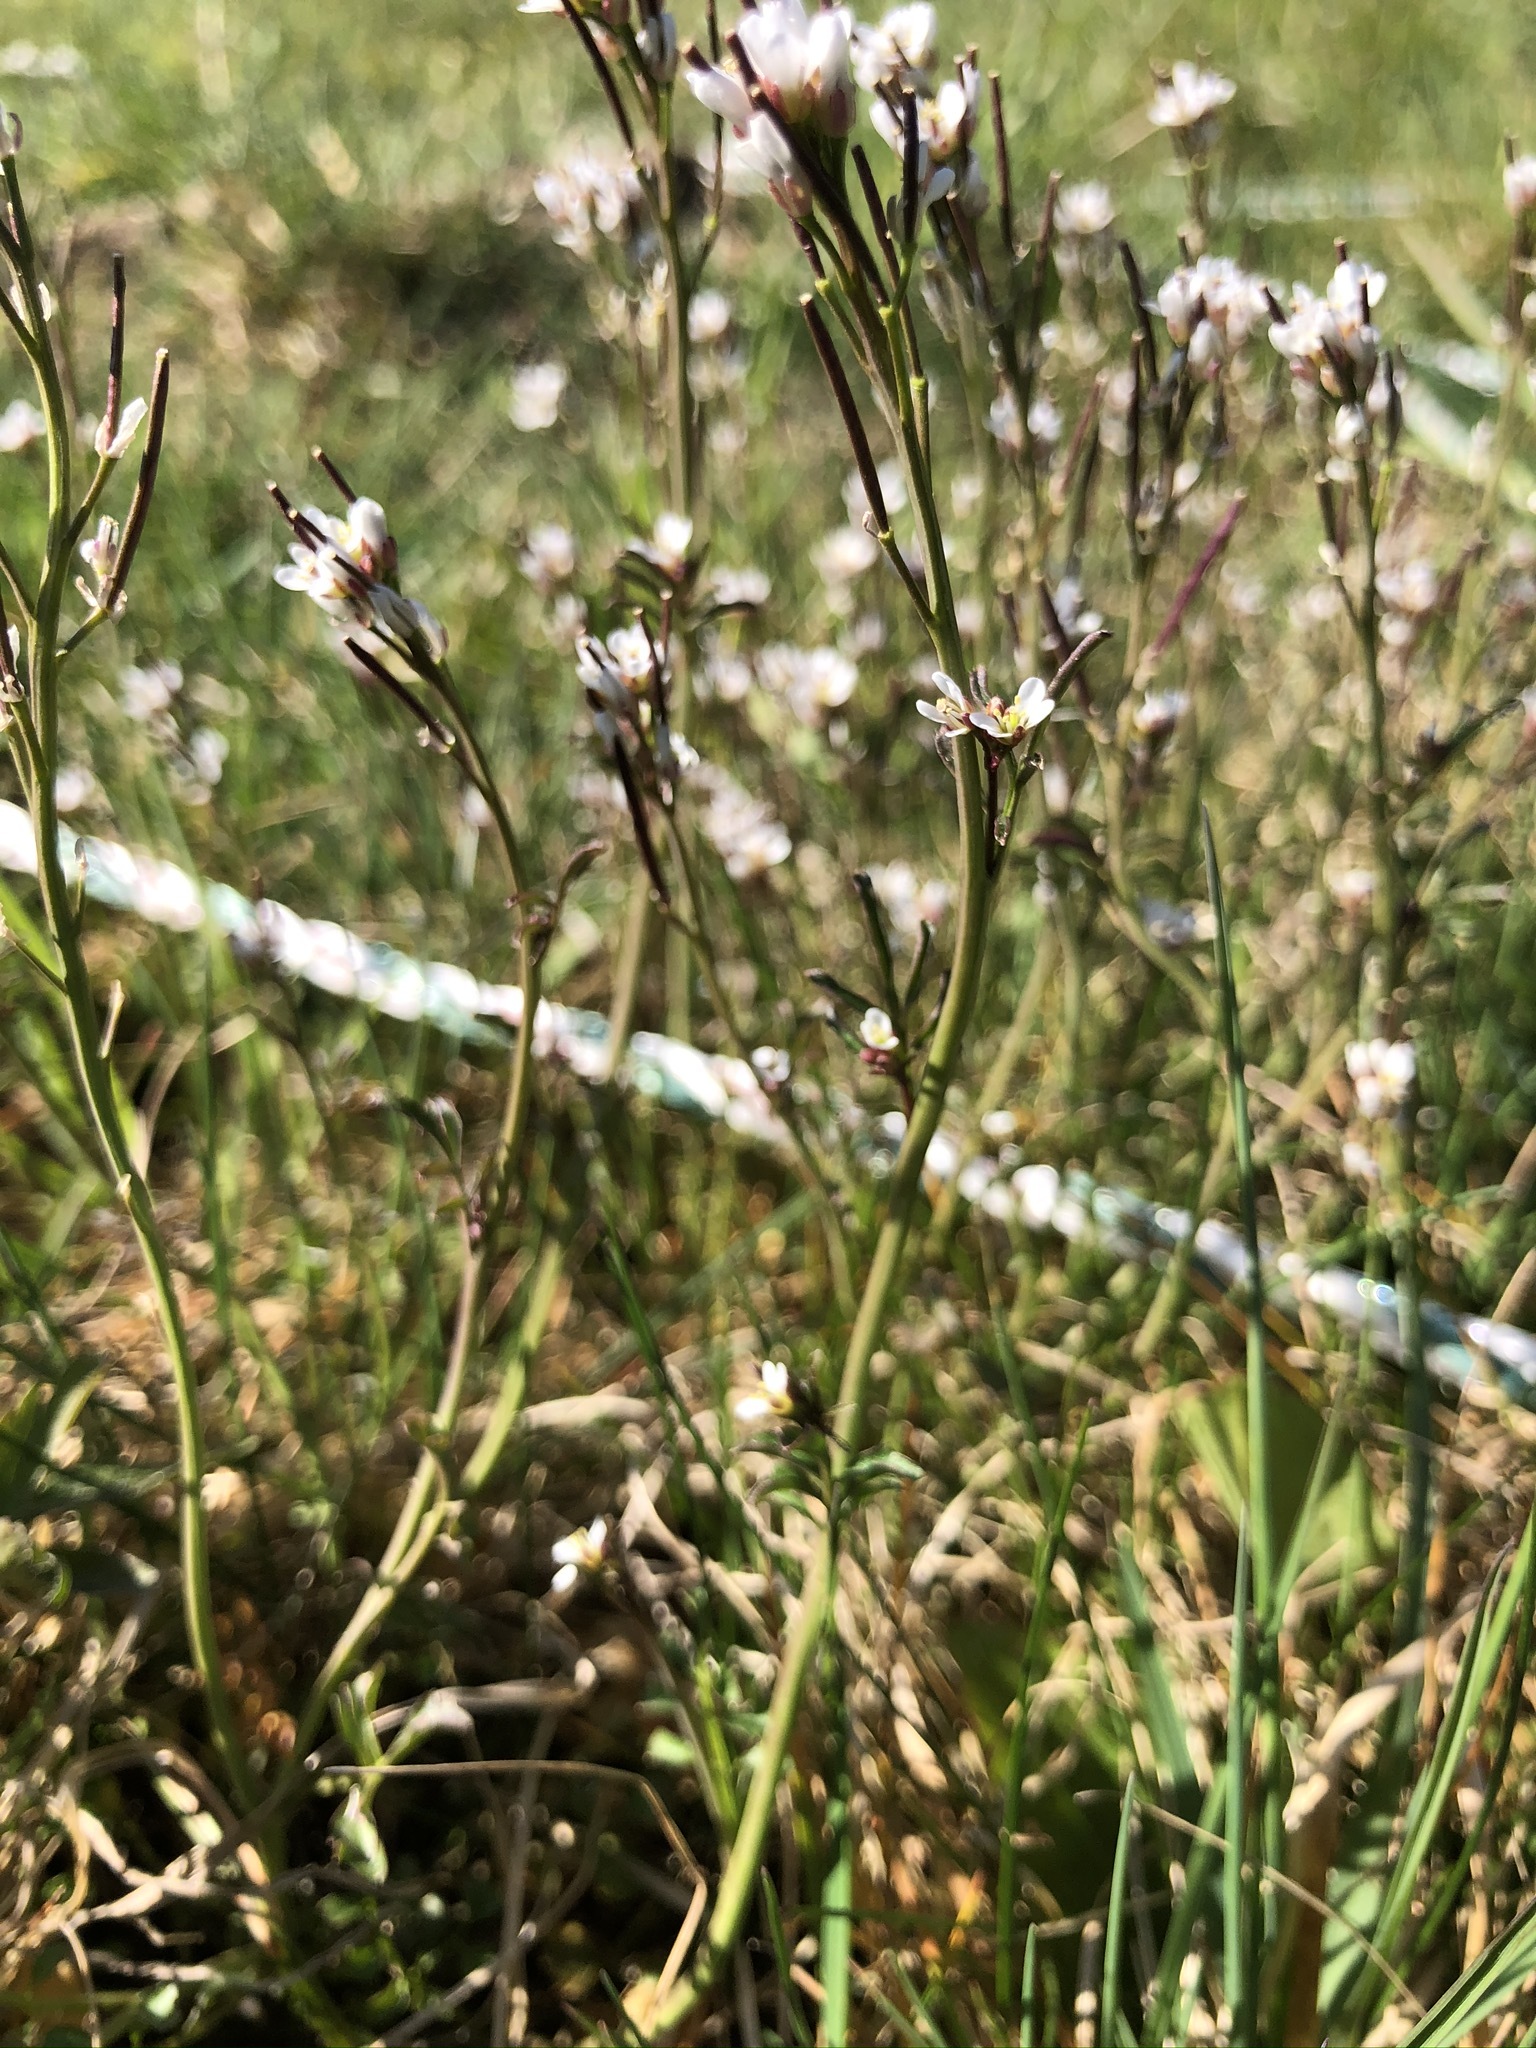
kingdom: Plantae
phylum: Tracheophyta
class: Magnoliopsida
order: Brassicales
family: Brassicaceae
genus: Cardamine
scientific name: Cardamine hirsuta
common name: Hairy bittercress
